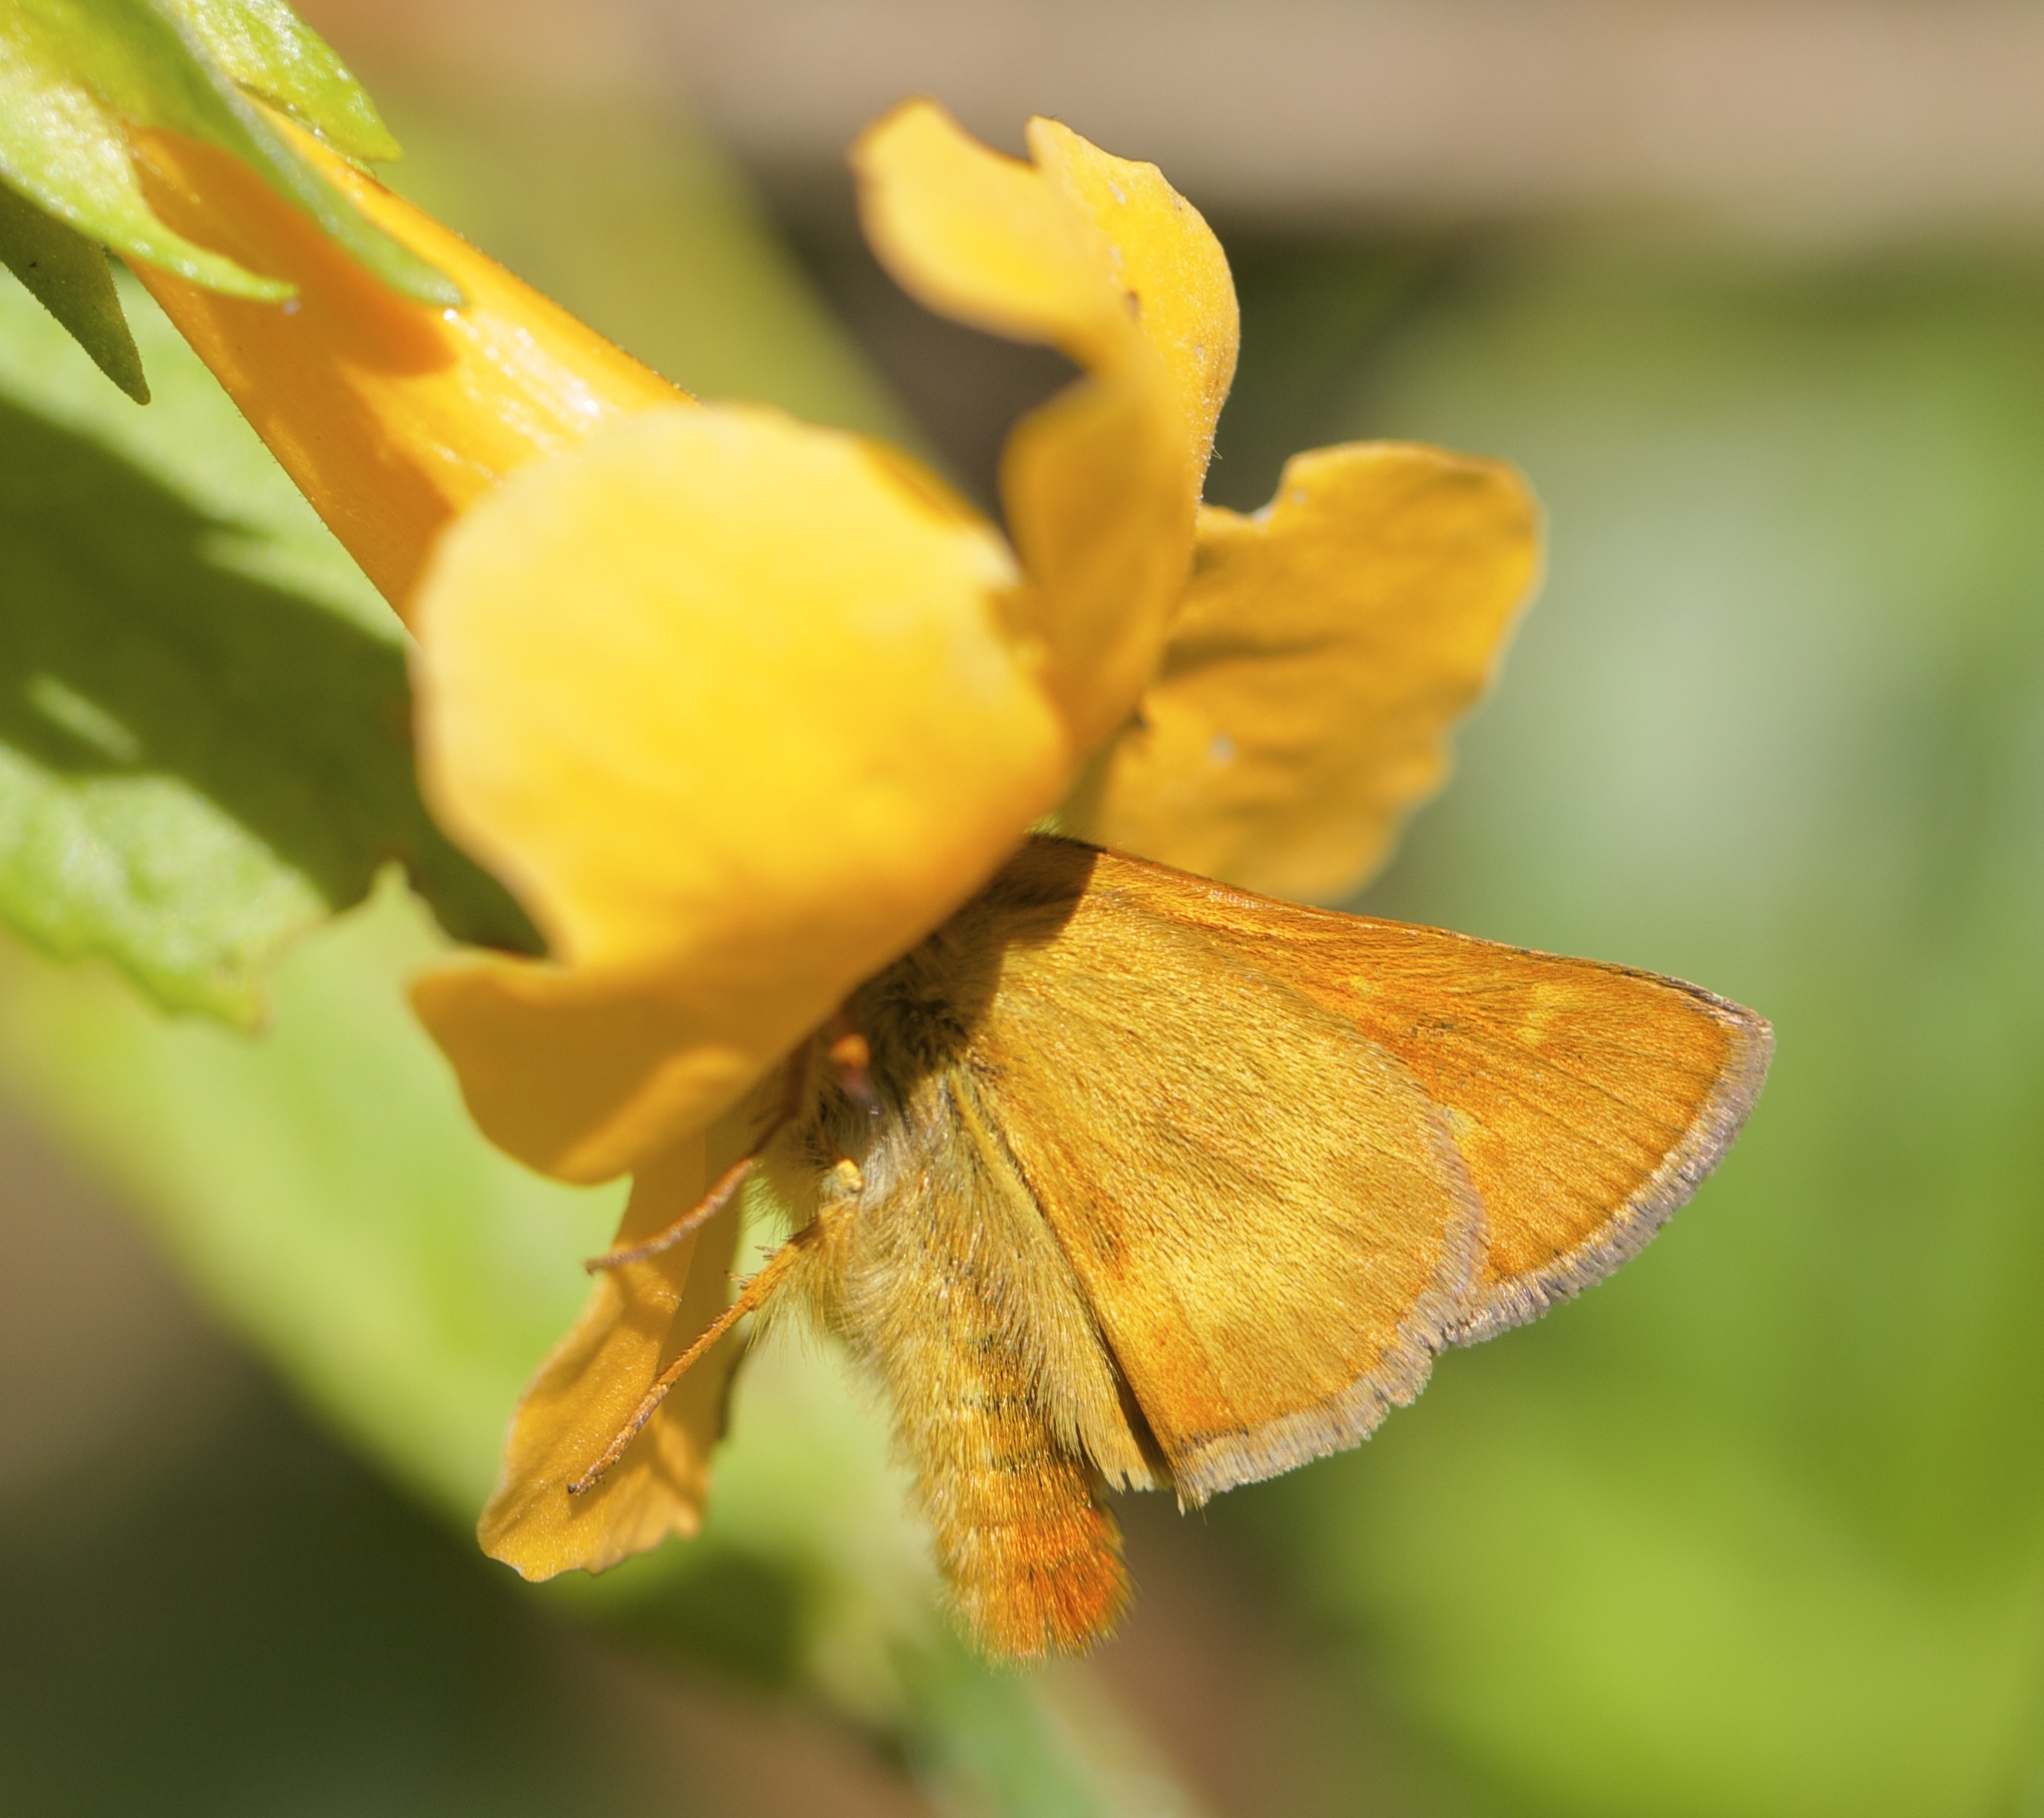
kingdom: Animalia
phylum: Arthropoda
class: Insecta
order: Lepidoptera
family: Hesperiidae
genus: Ochlodes
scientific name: Ochlodes agricola
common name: Rural skipper
